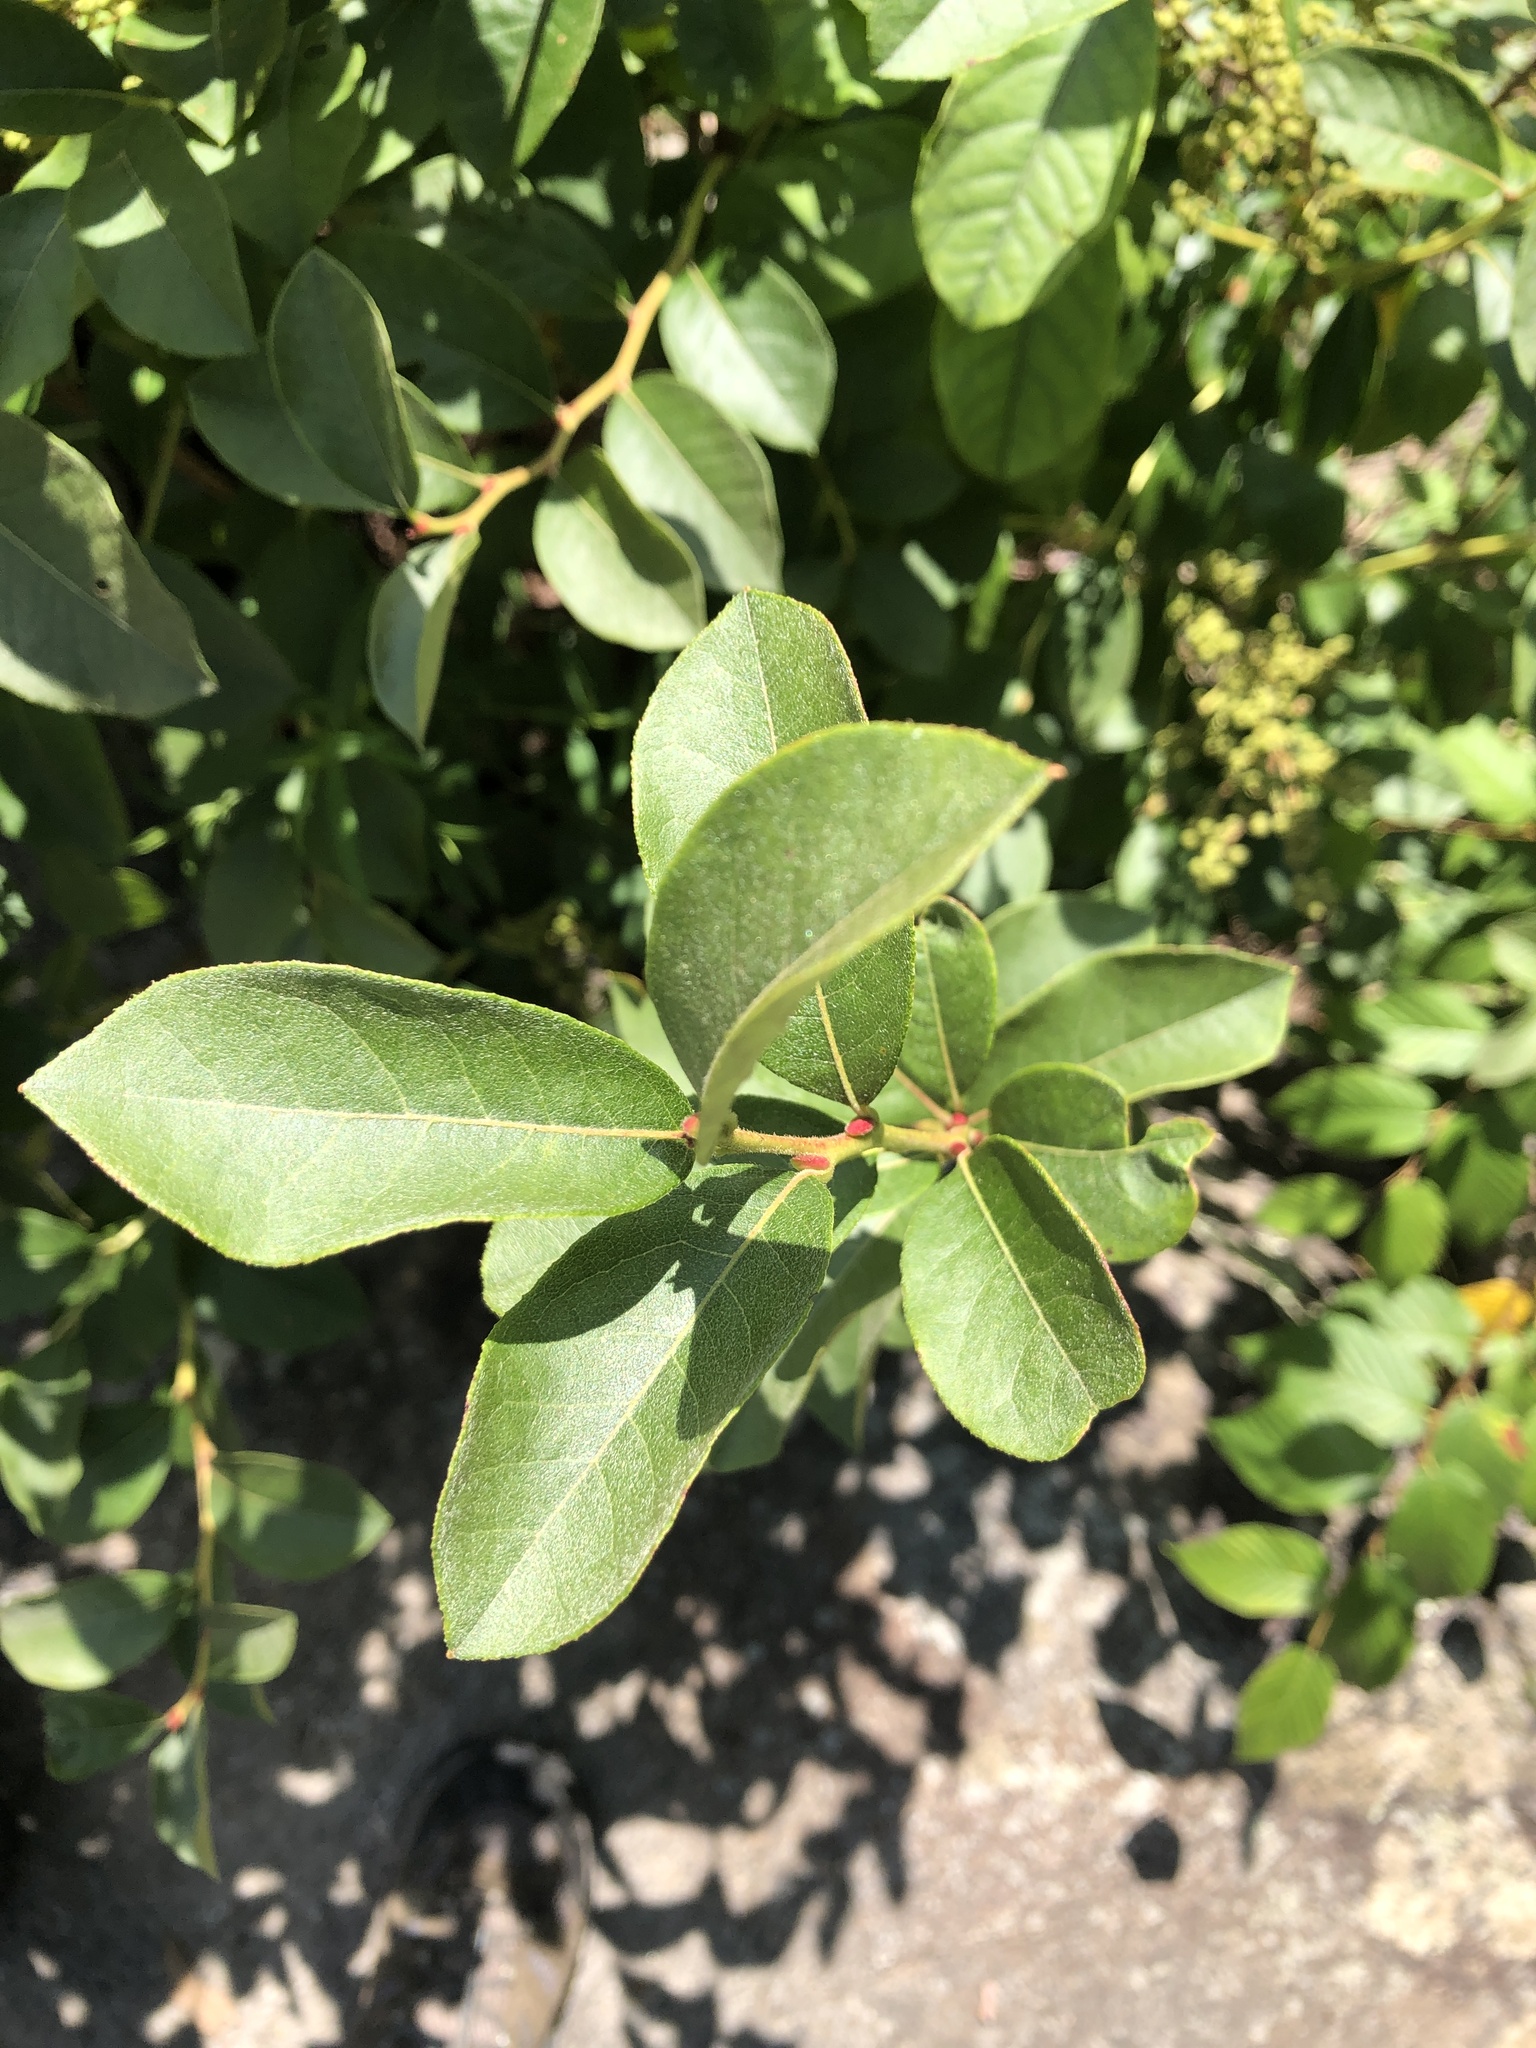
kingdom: Plantae
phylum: Tracheophyta
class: Magnoliopsida
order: Ericales
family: Ericaceae
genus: Lyonia
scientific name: Lyonia ligustrina
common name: Maleberry
